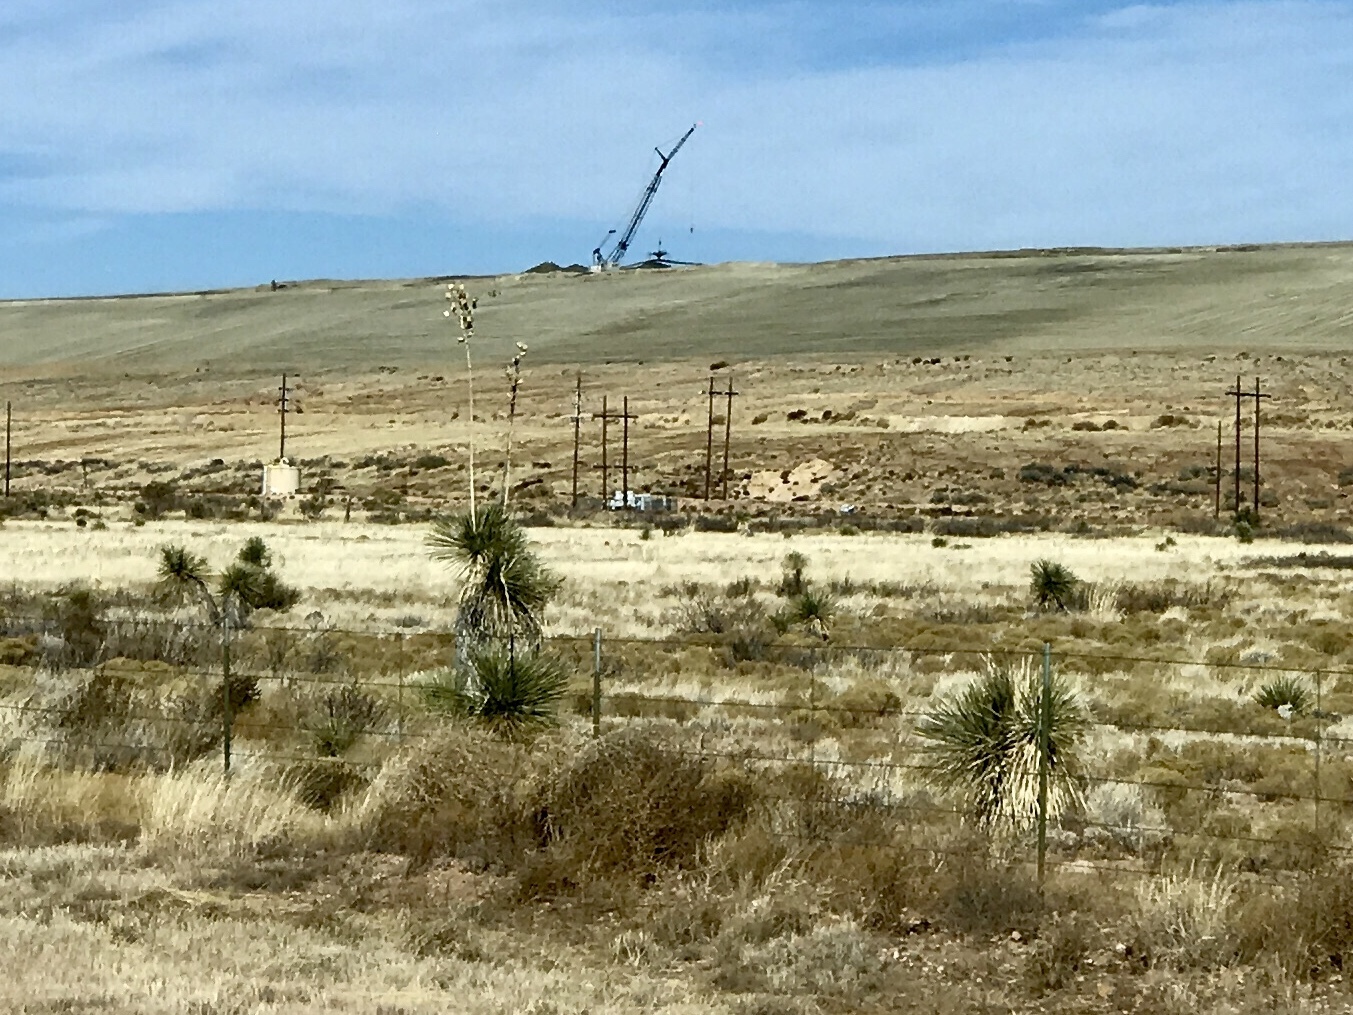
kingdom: Plantae
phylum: Tracheophyta
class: Liliopsida
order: Asparagales
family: Asparagaceae
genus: Yucca
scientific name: Yucca elata
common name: Palmella
